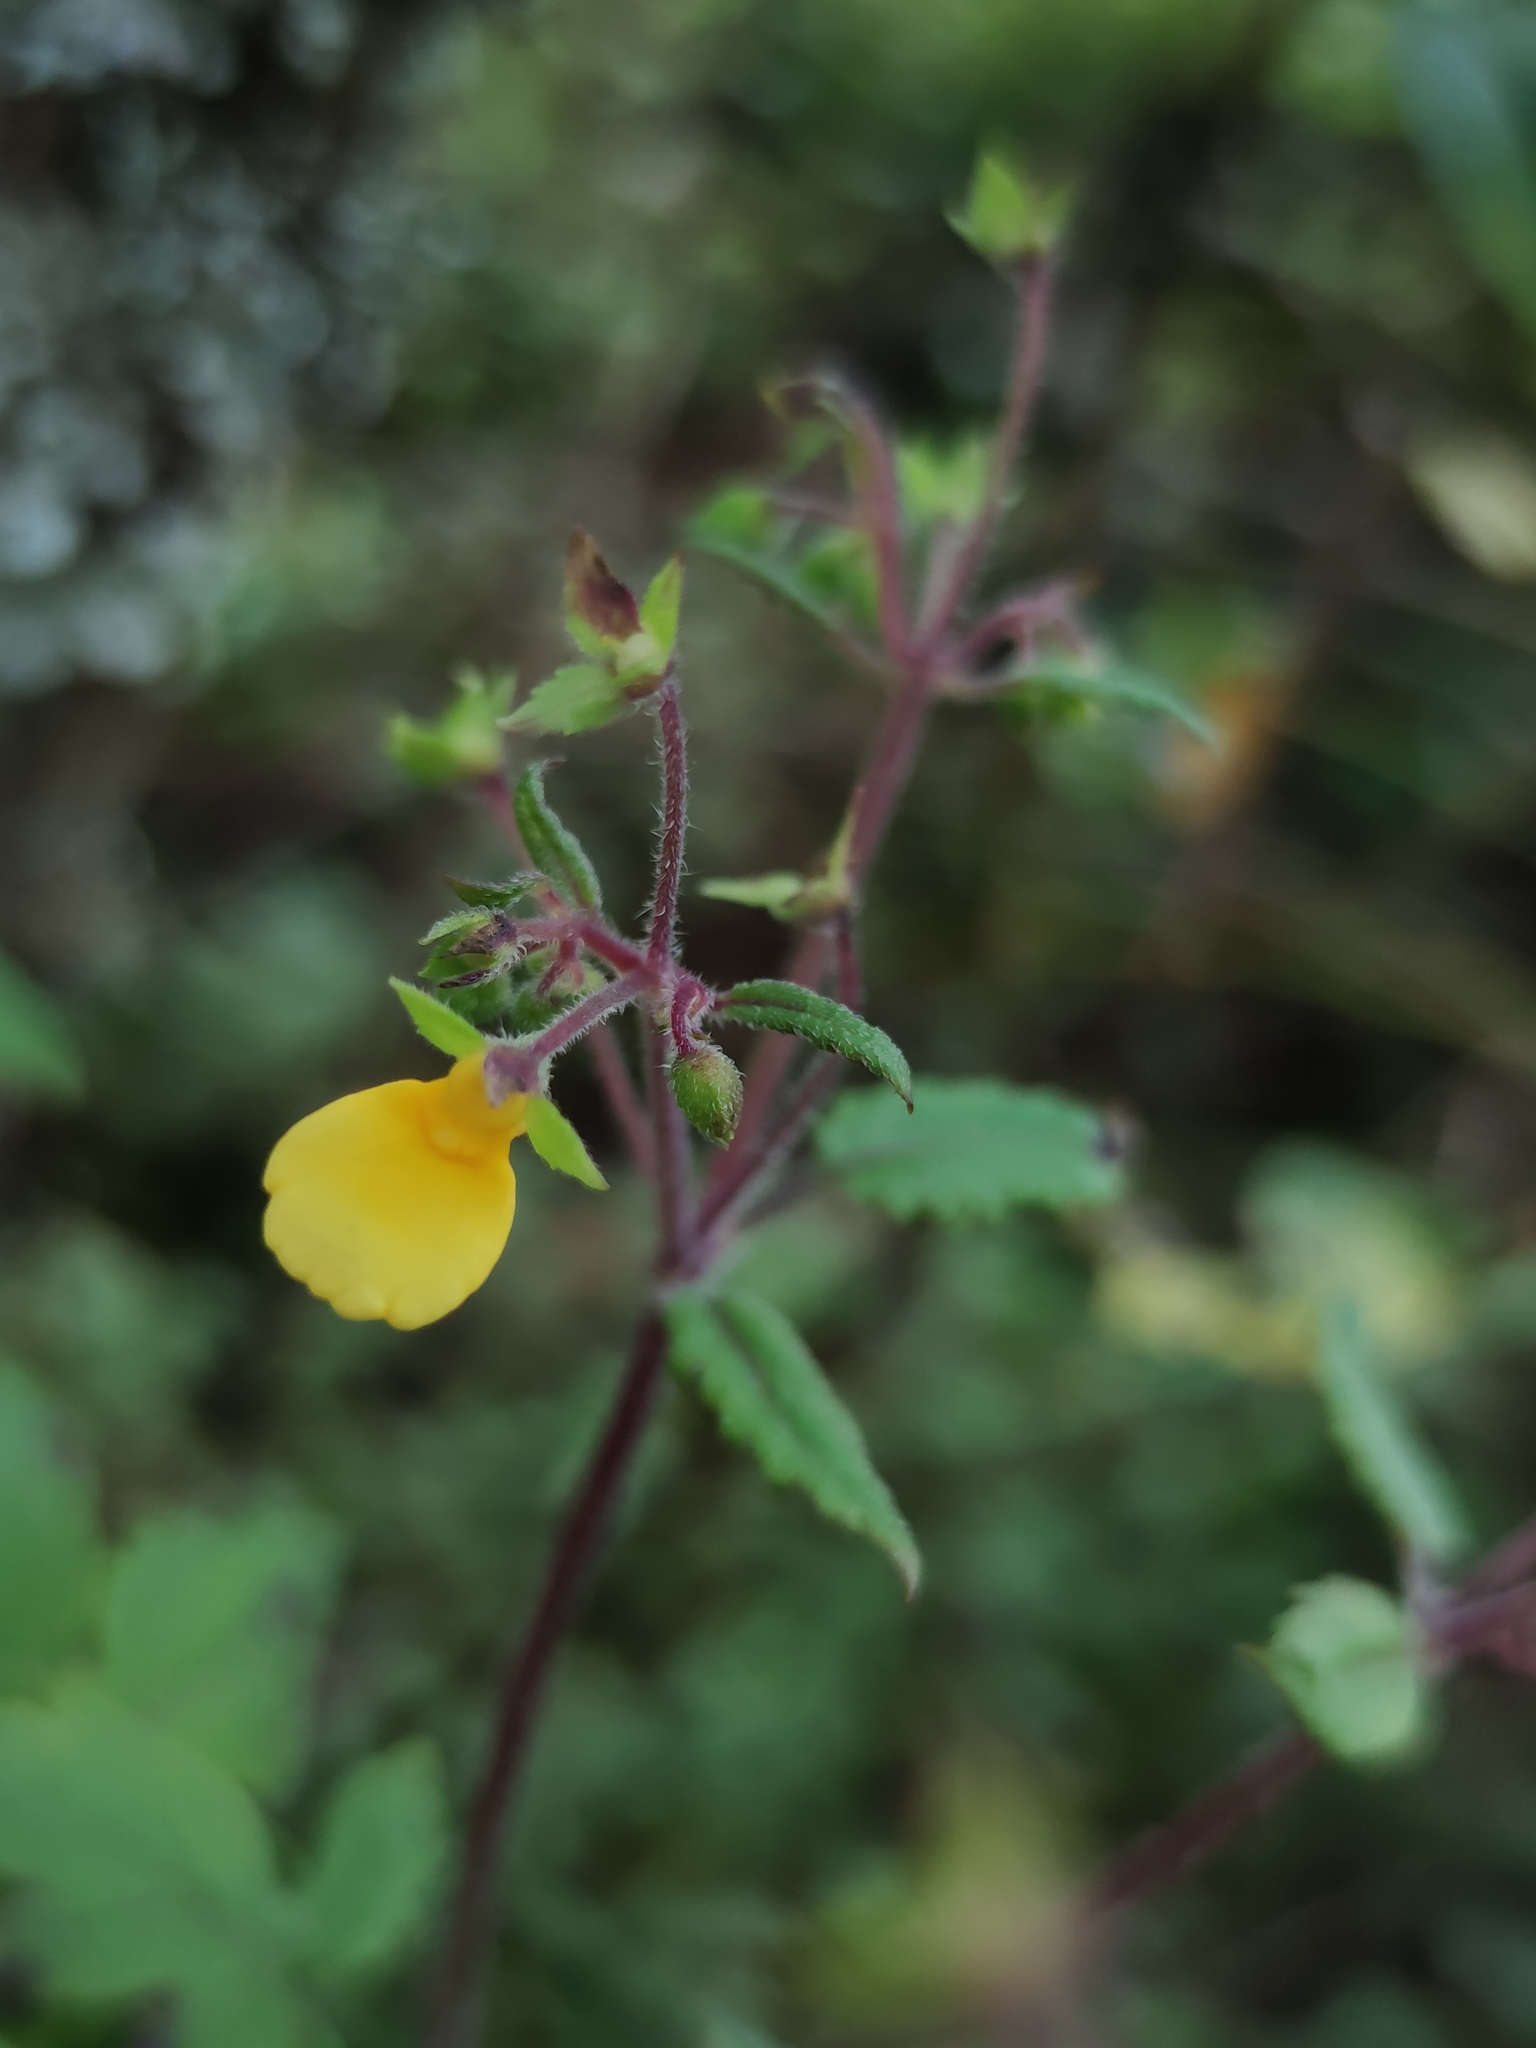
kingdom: Plantae
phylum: Tracheophyta
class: Magnoliopsida
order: Lamiales
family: Calceolariaceae
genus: Calceolaria
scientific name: Calceolaria mexicana
